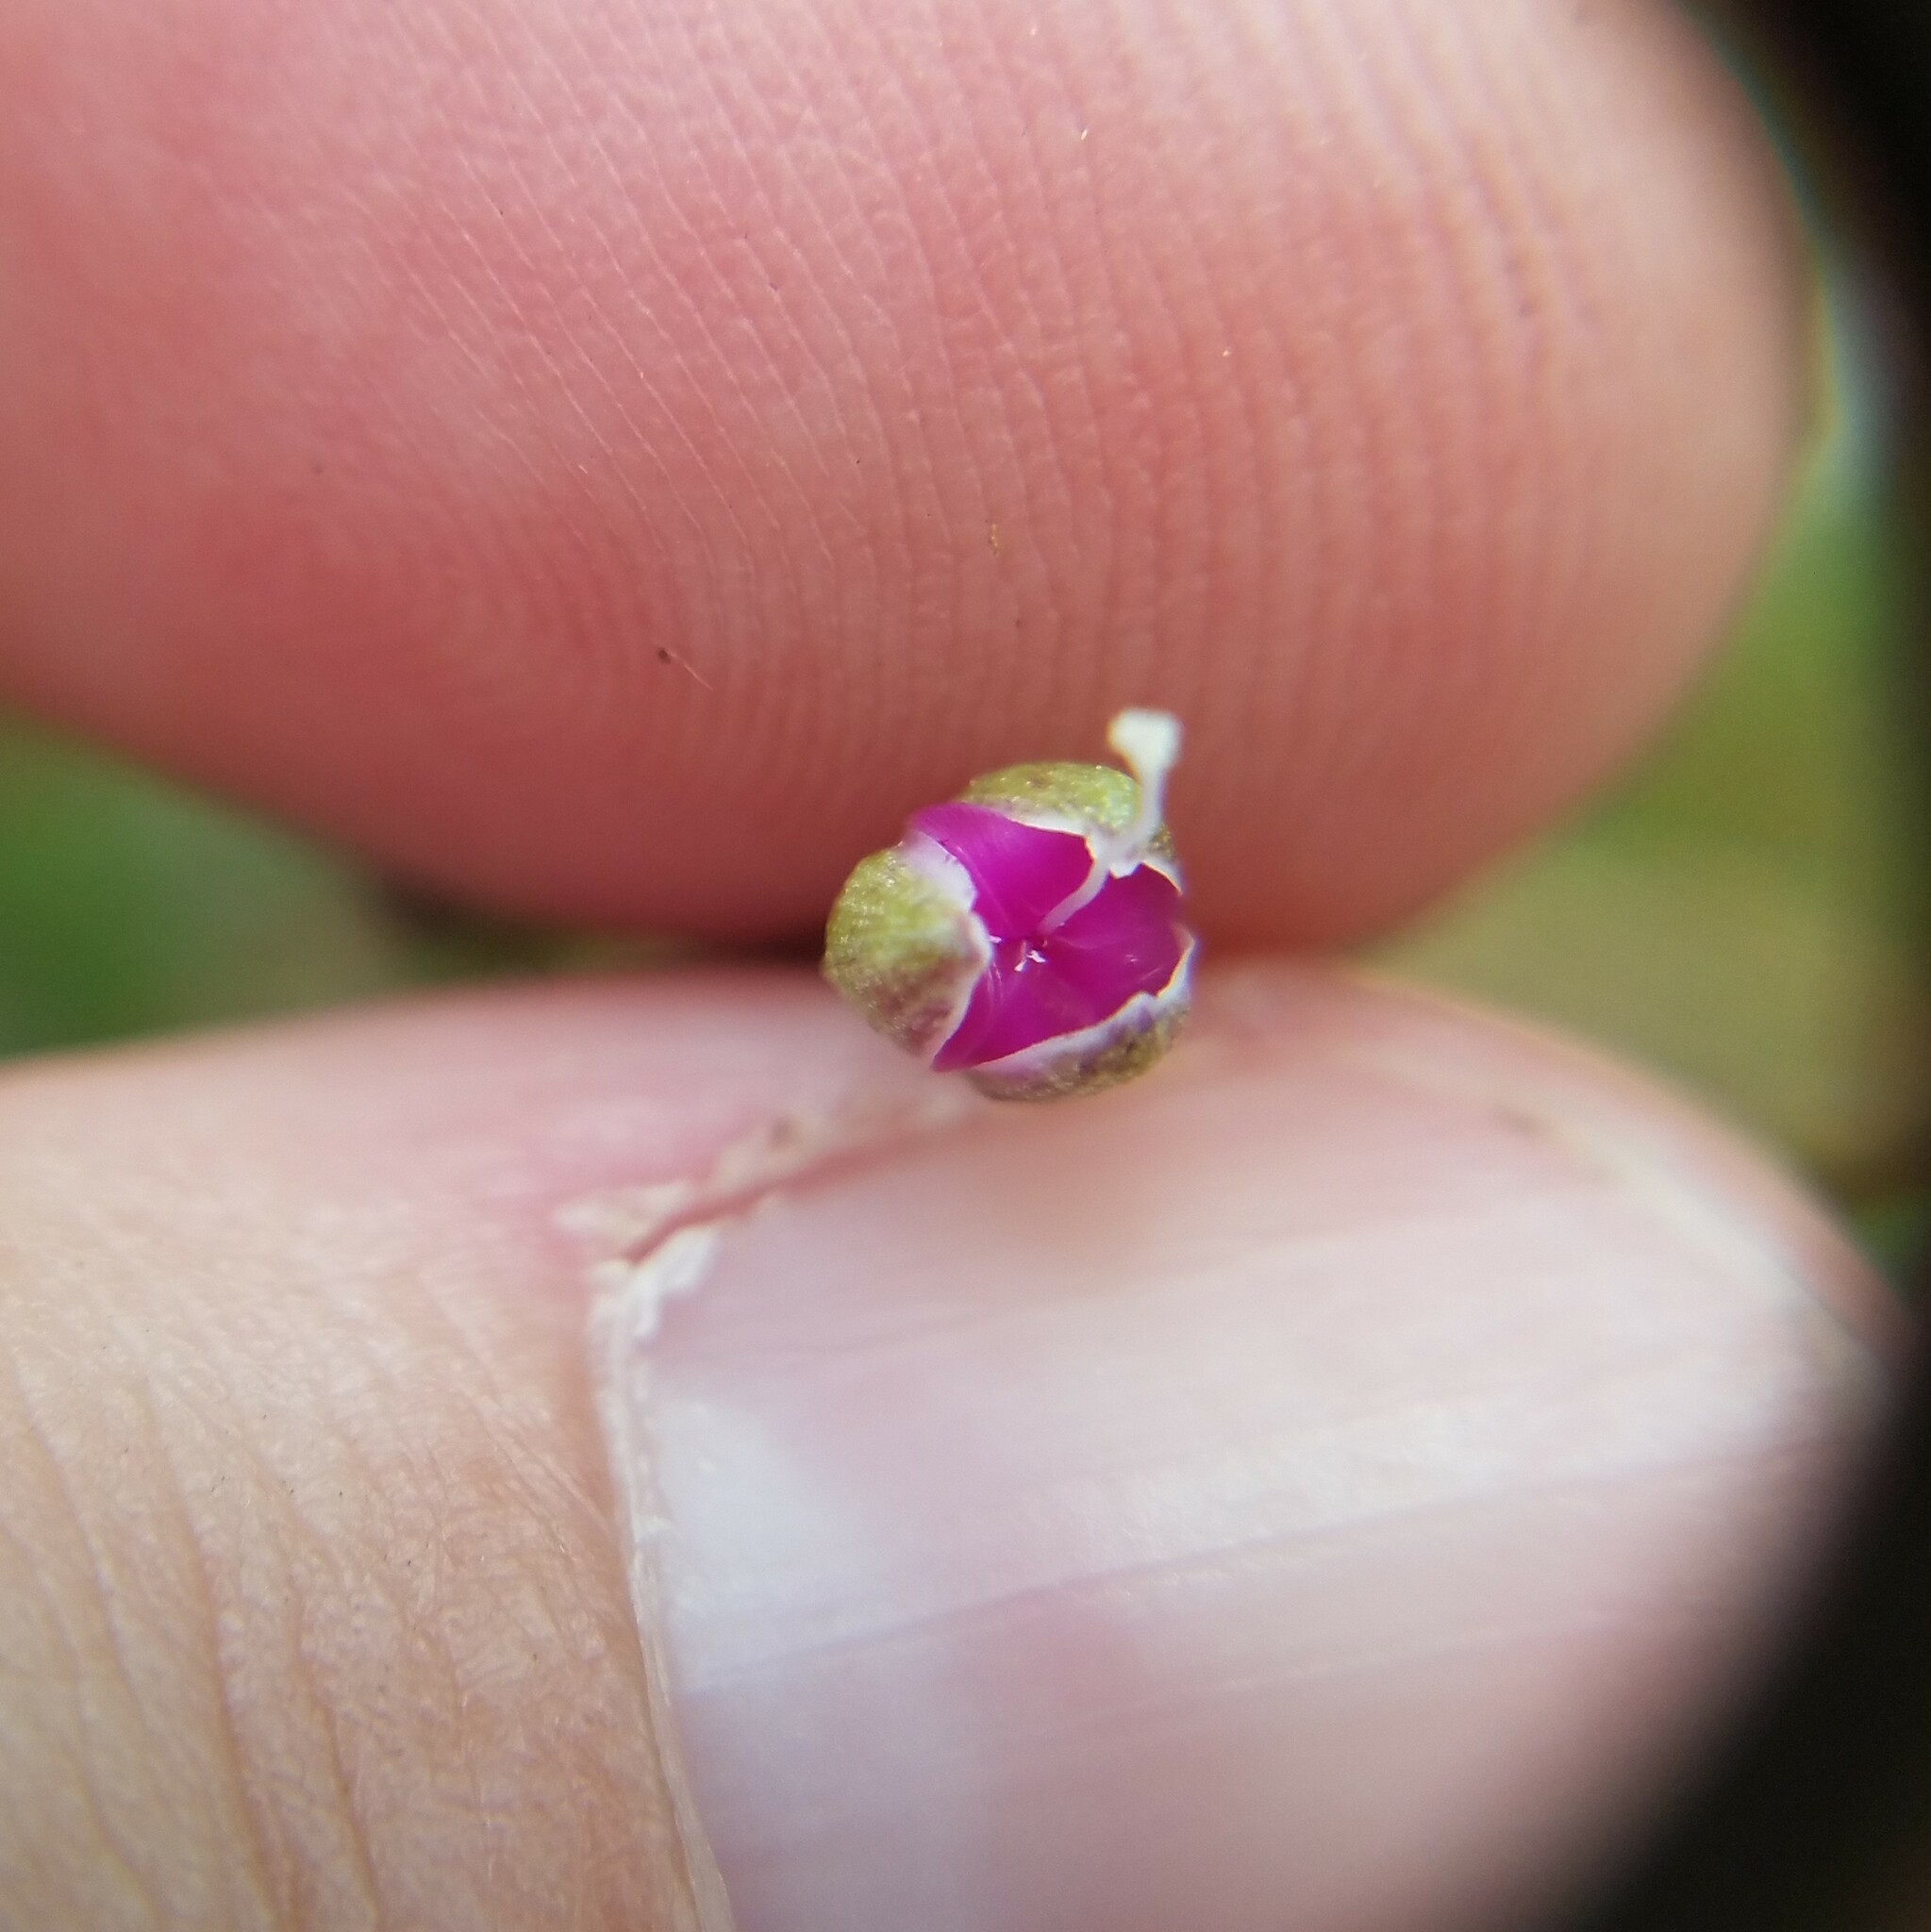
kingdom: Plantae
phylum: Tracheophyta
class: Liliopsida
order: Commelinales
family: Commelinaceae
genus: Callisia
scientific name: Callisia graminea
